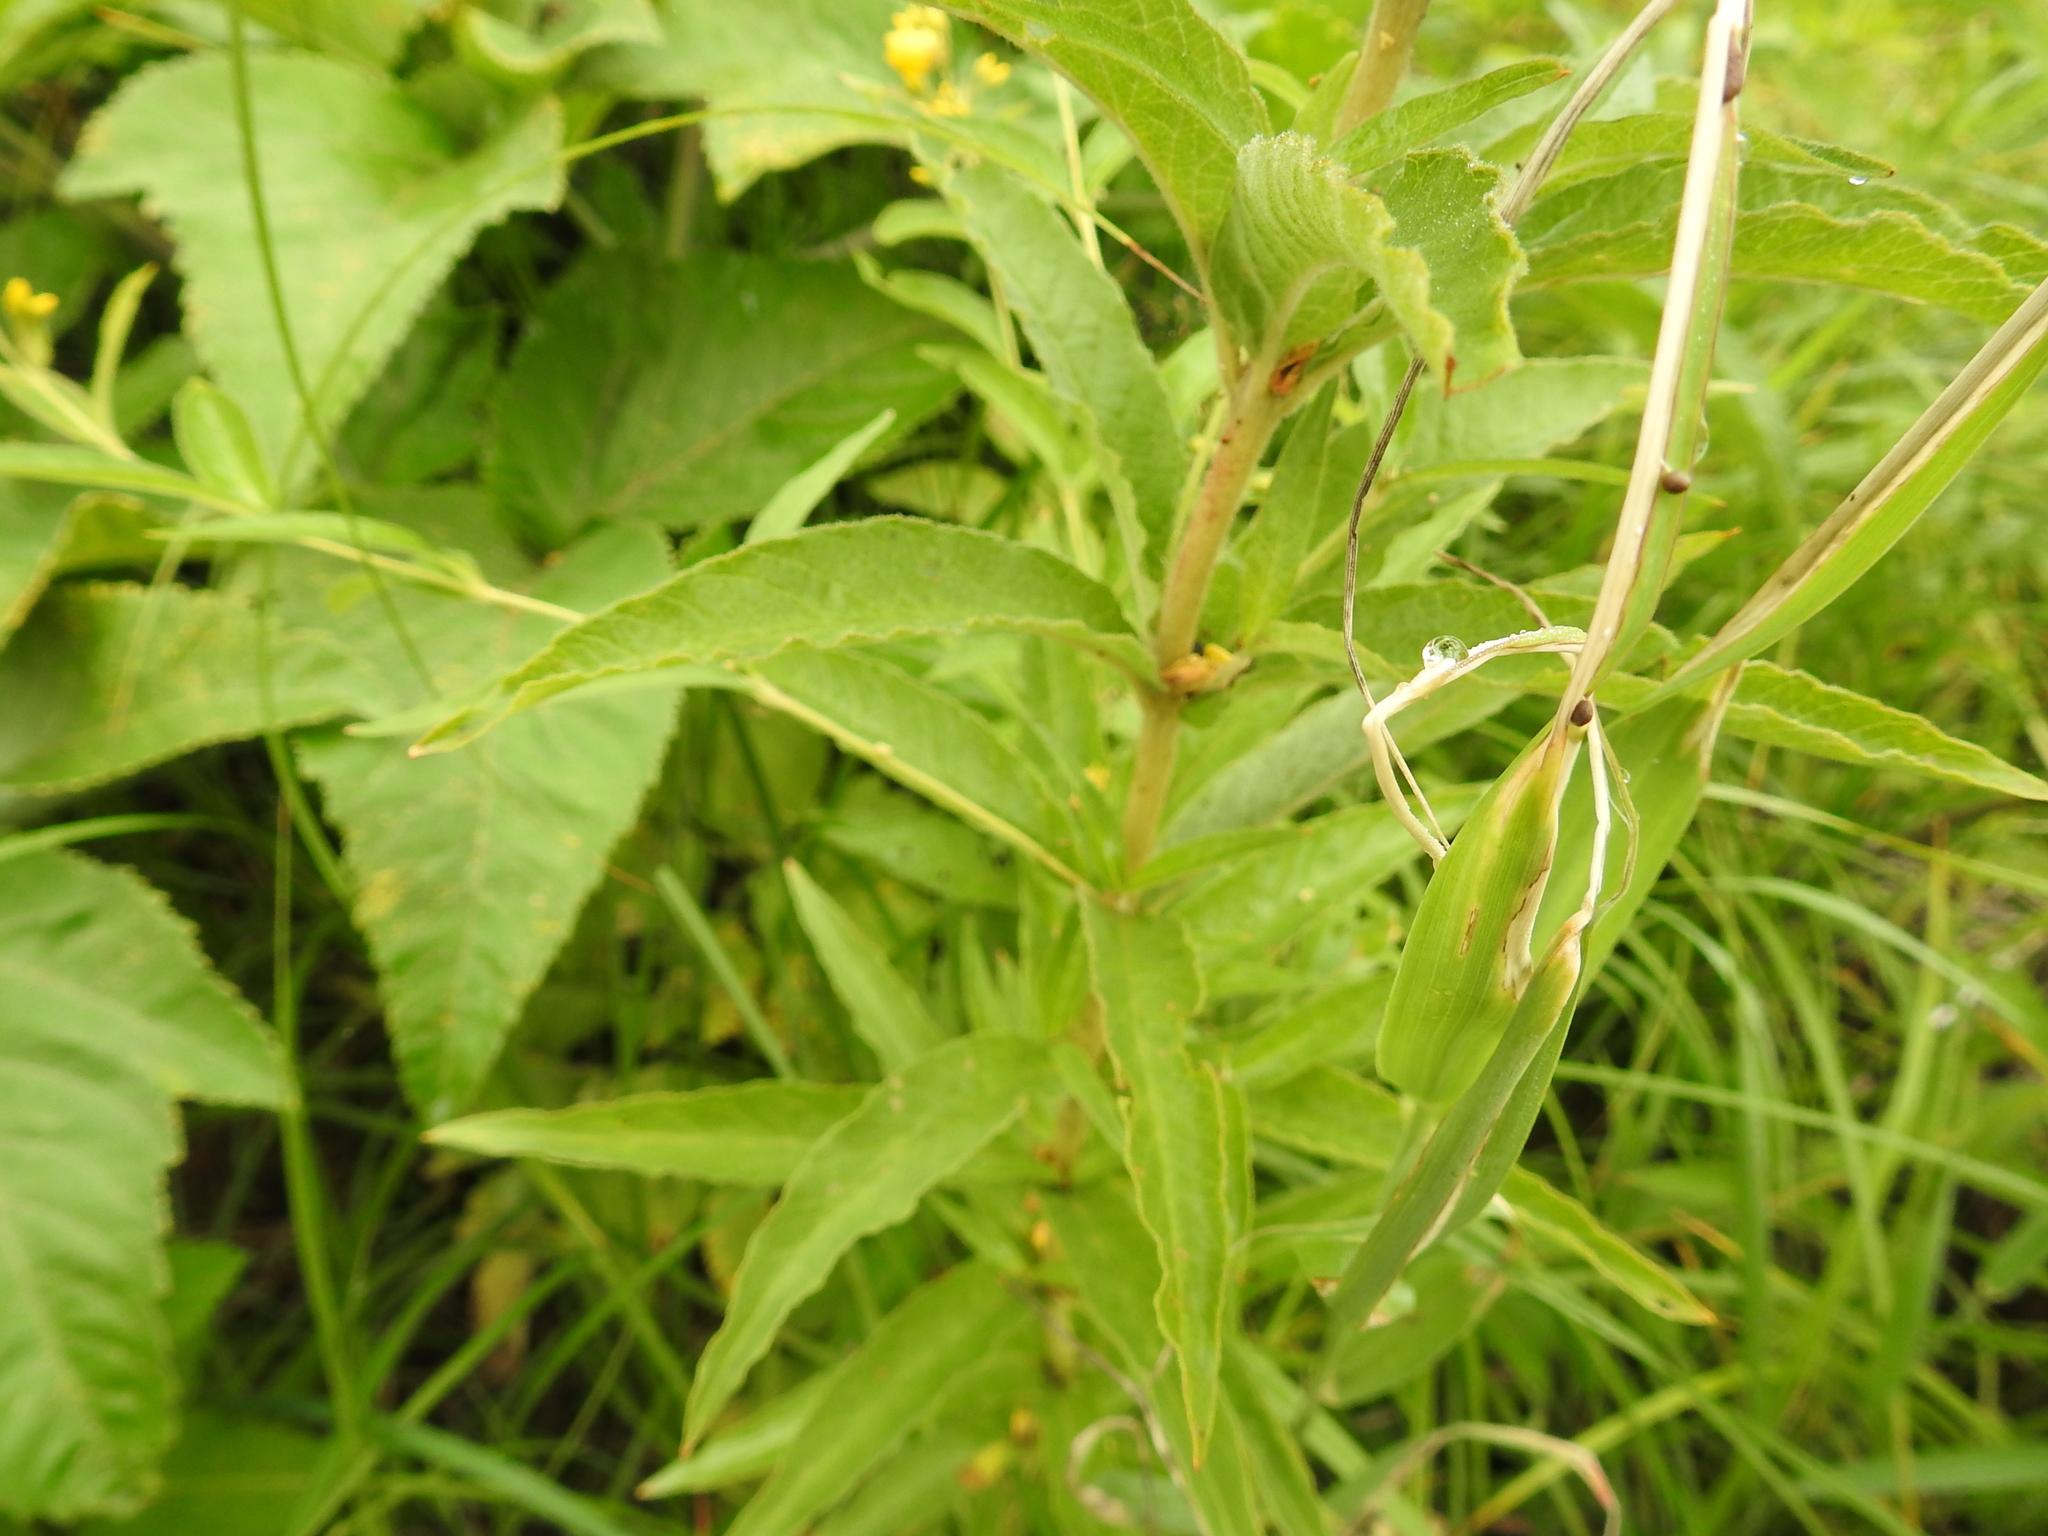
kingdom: Plantae
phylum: Tracheophyta
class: Magnoliopsida
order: Ericales
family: Primulaceae
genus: Lysimachia
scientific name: Lysimachia vulgaris
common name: Yellow loosestrife
